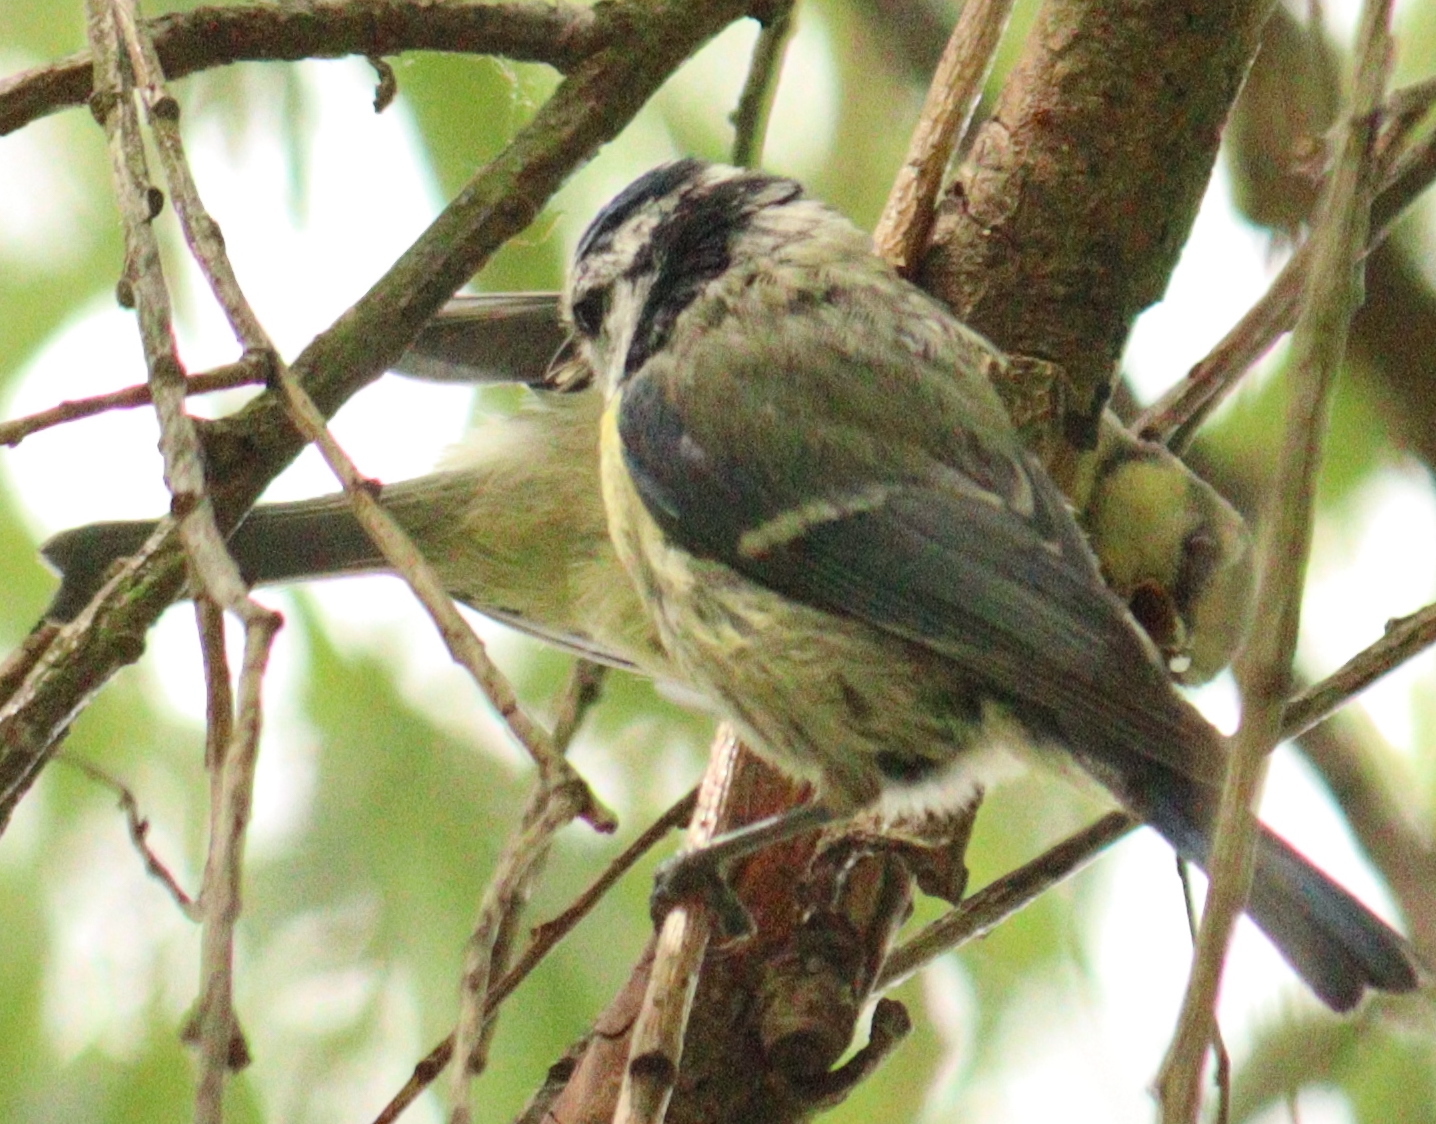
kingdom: Animalia
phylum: Chordata
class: Aves
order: Passeriformes
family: Paridae
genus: Cyanistes
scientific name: Cyanistes caeruleus
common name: Eurasian blue tit
